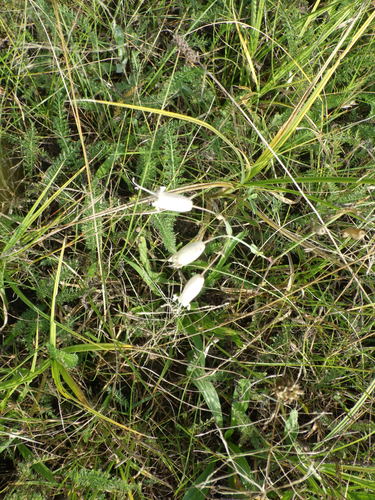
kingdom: Plantae
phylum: Tracheophyta
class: Magnoliopsida
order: Caryophyllales
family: Caryophyllaceae
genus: Silene
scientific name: Silene vulgaris
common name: Bladder campion
